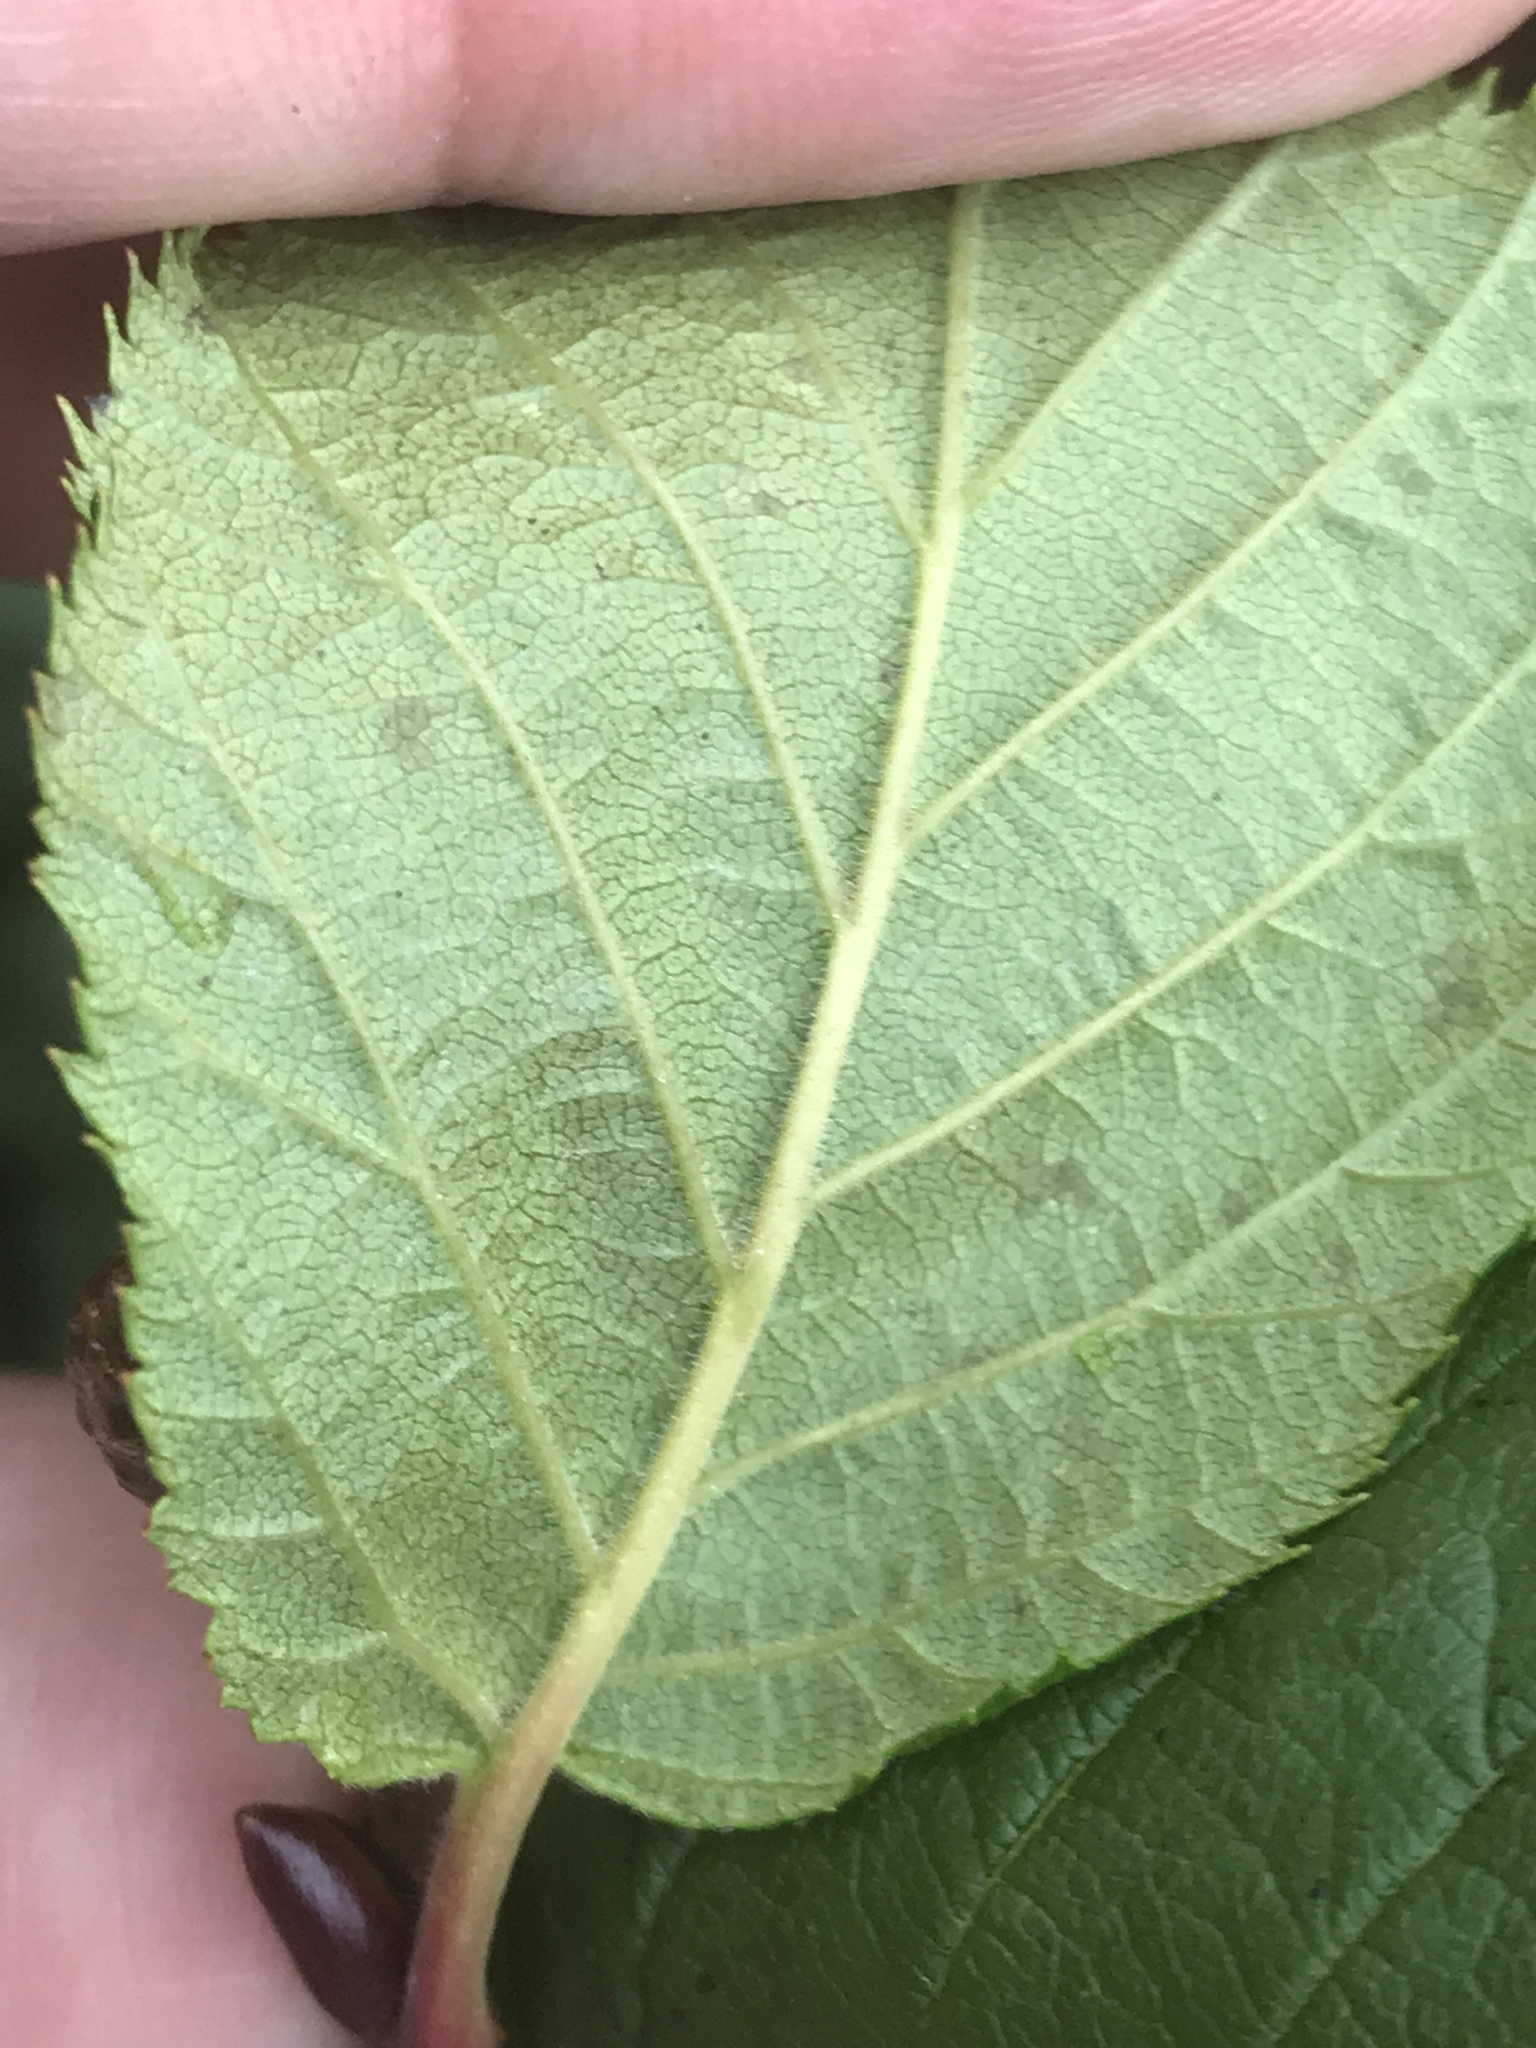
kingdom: Plantae
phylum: Tracheophyta
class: Magnoliopsida
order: Fagales
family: Betulaceae
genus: Alnus
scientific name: Alnus alnobetula
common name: Green alder
